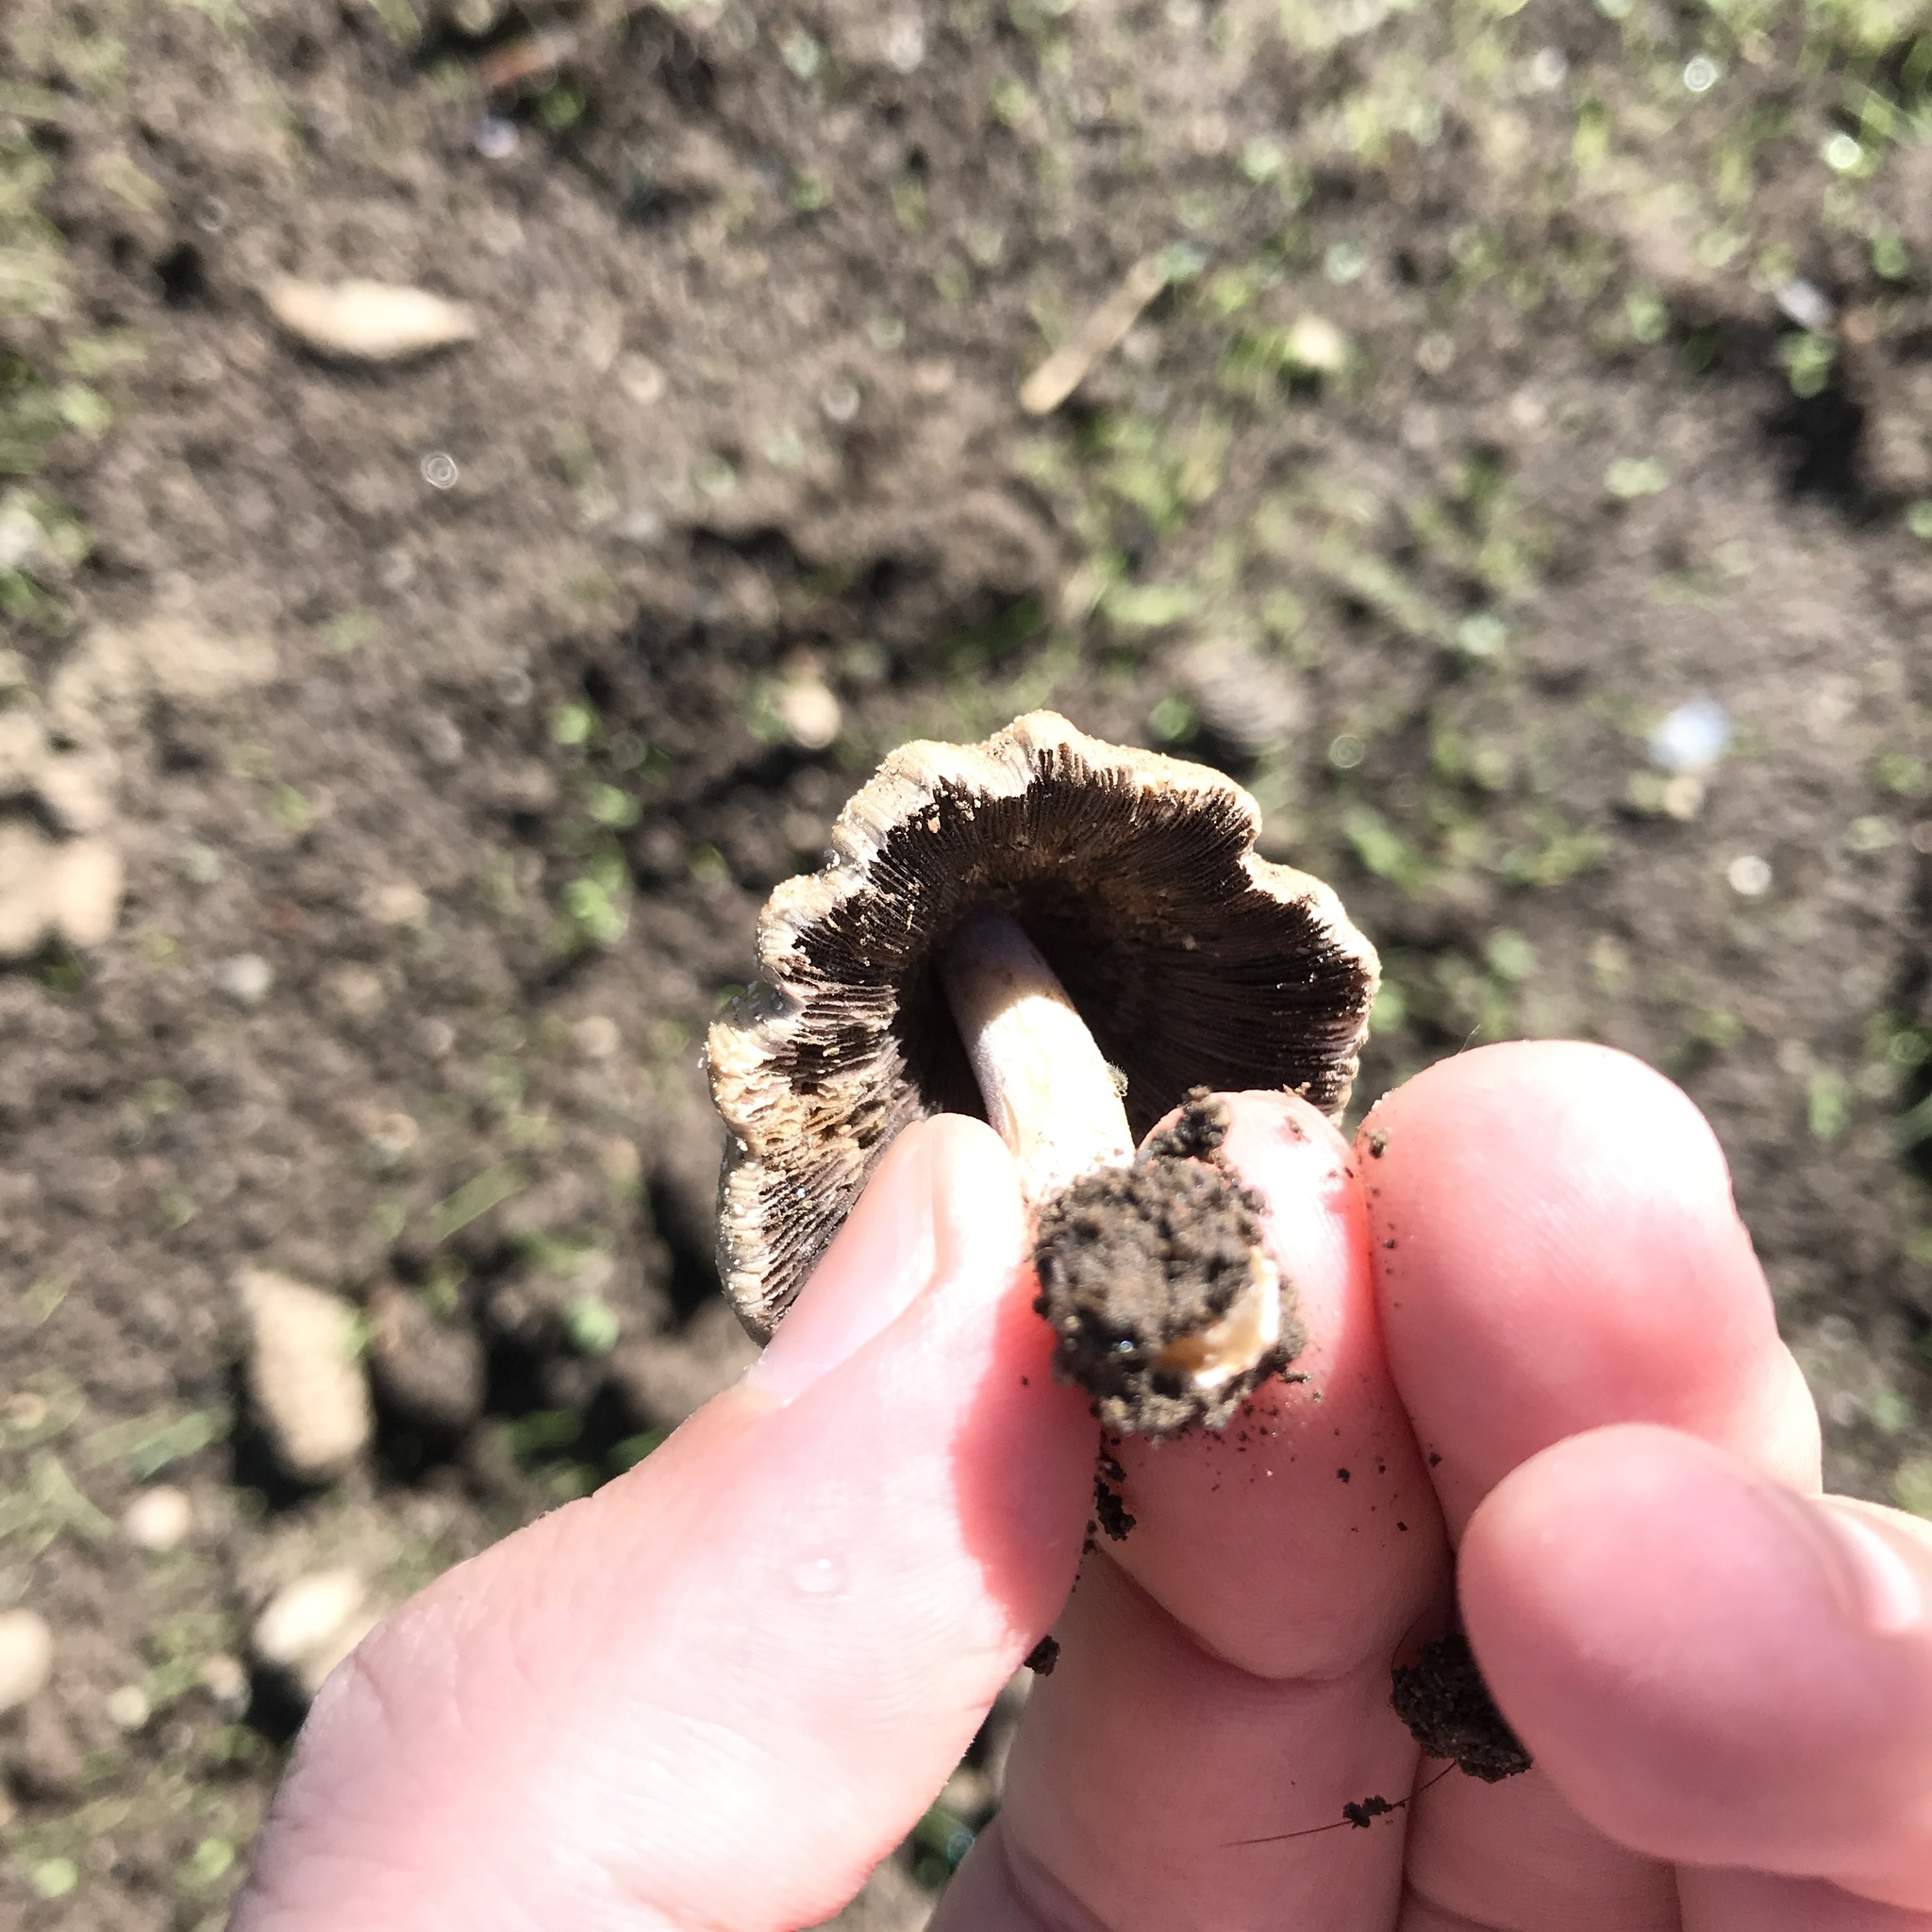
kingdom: Fungi
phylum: Basidiomycota
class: Agaricomycetes
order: Agaricales
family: Psathyrellaceae
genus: Coprinellus
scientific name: Coprinellus domesticus
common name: Firerug inkcap
